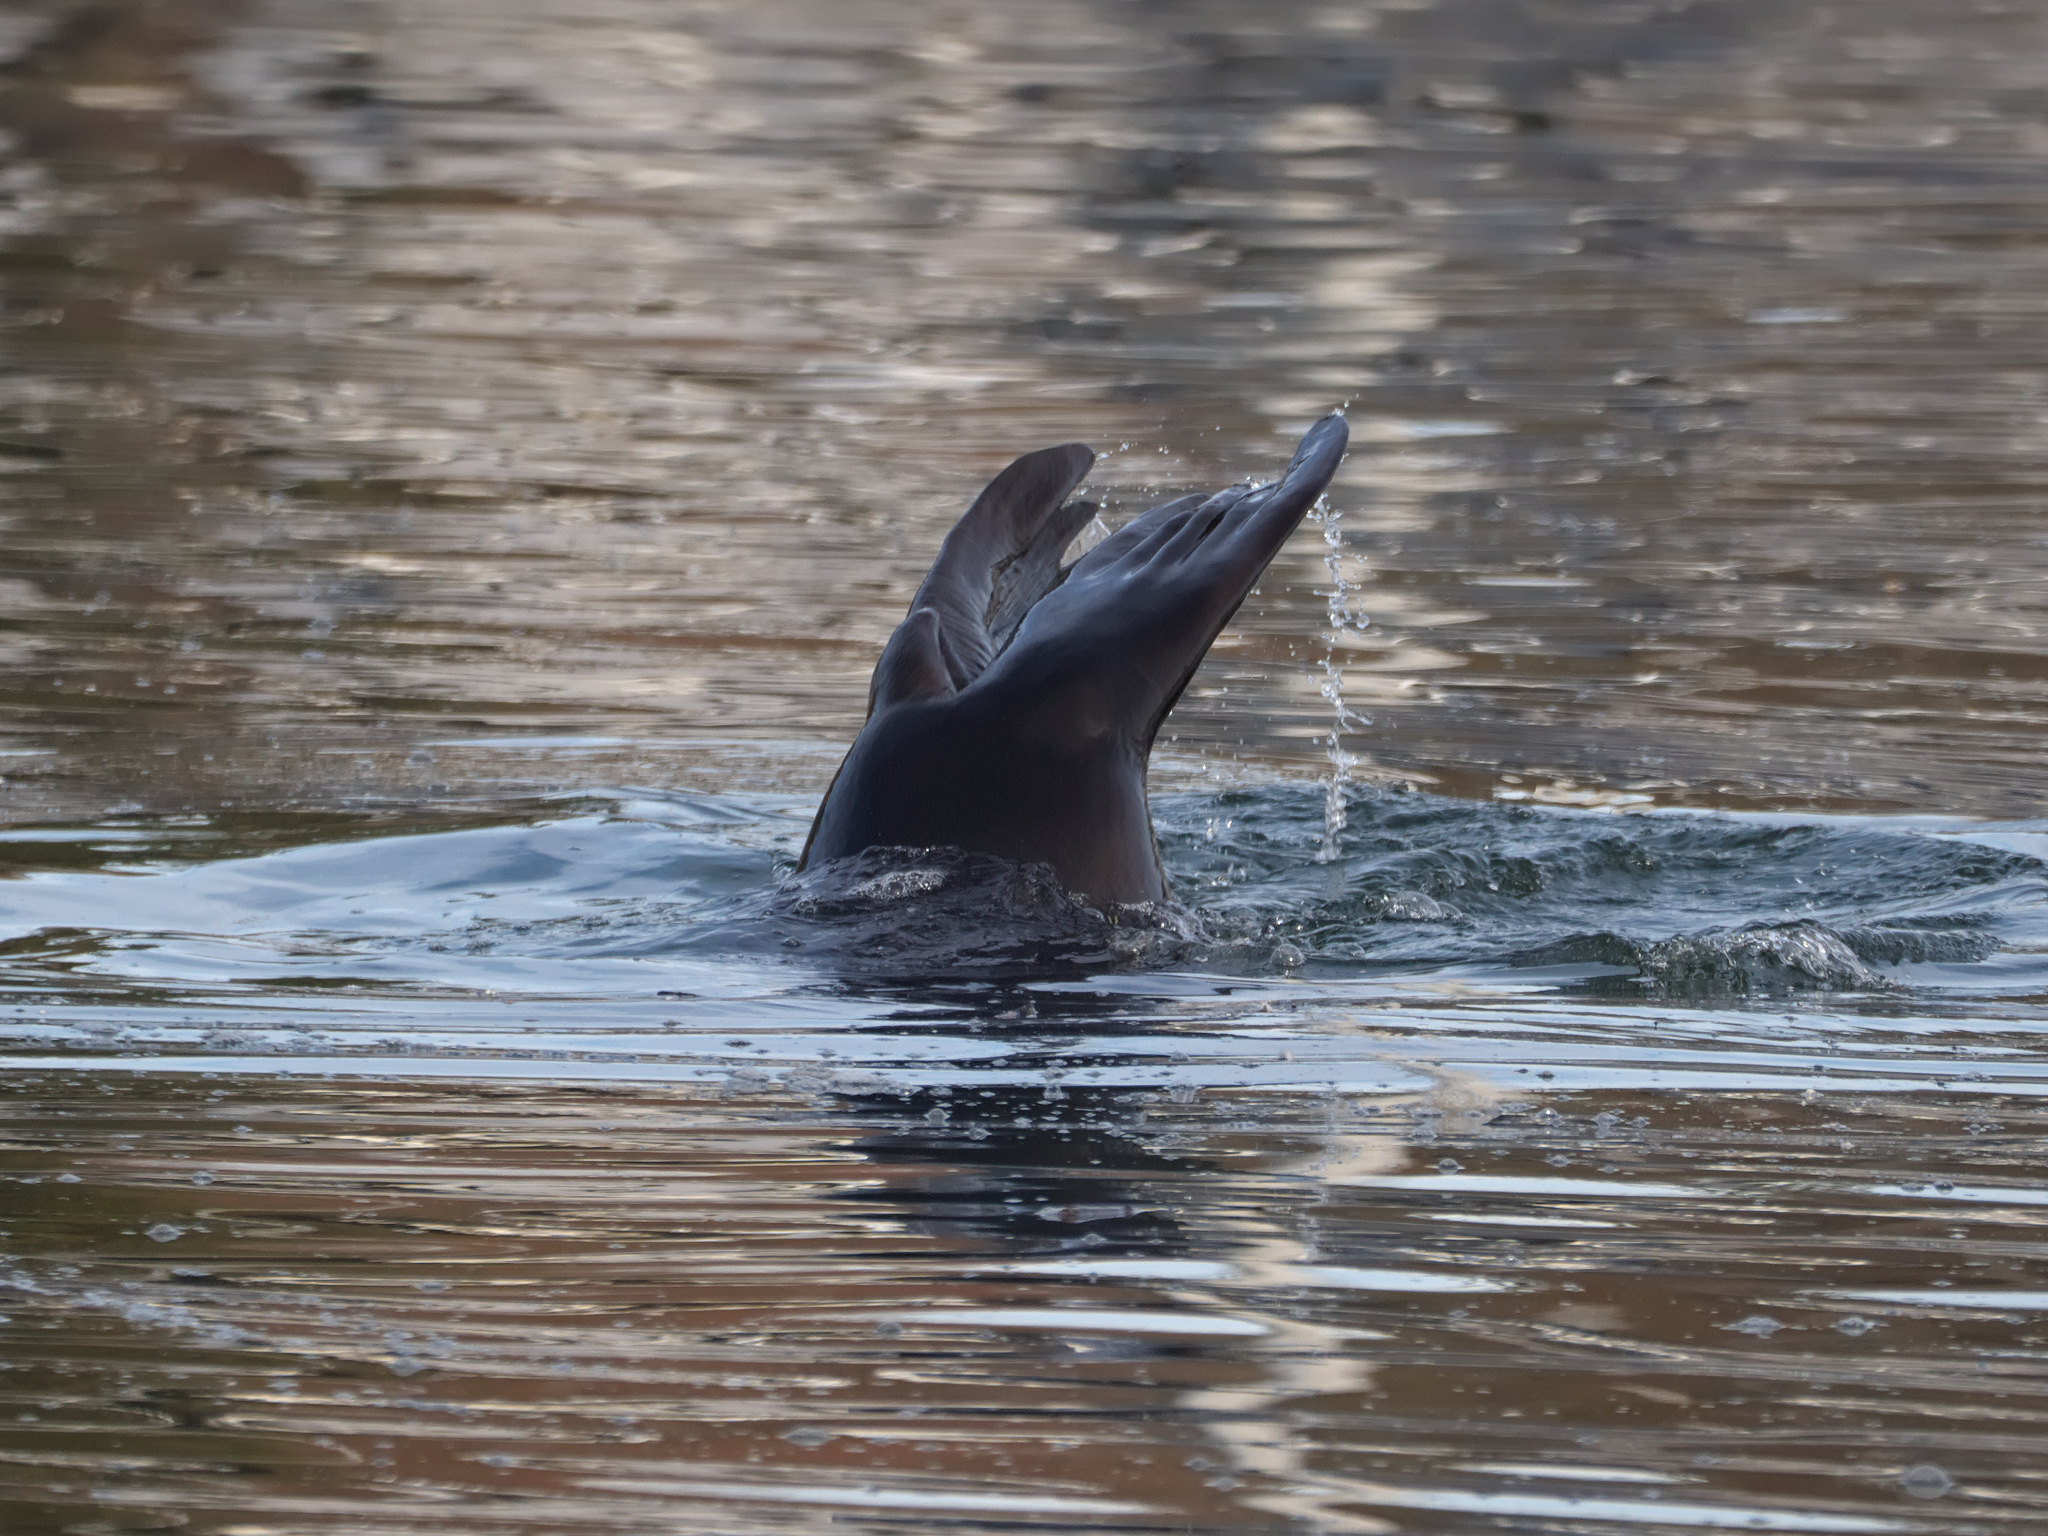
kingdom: Animalia
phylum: Chordata
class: Mammalia
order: Carnivora
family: Otariidae
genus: Zalophus
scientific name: Zalophus californianus
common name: California sea lion
